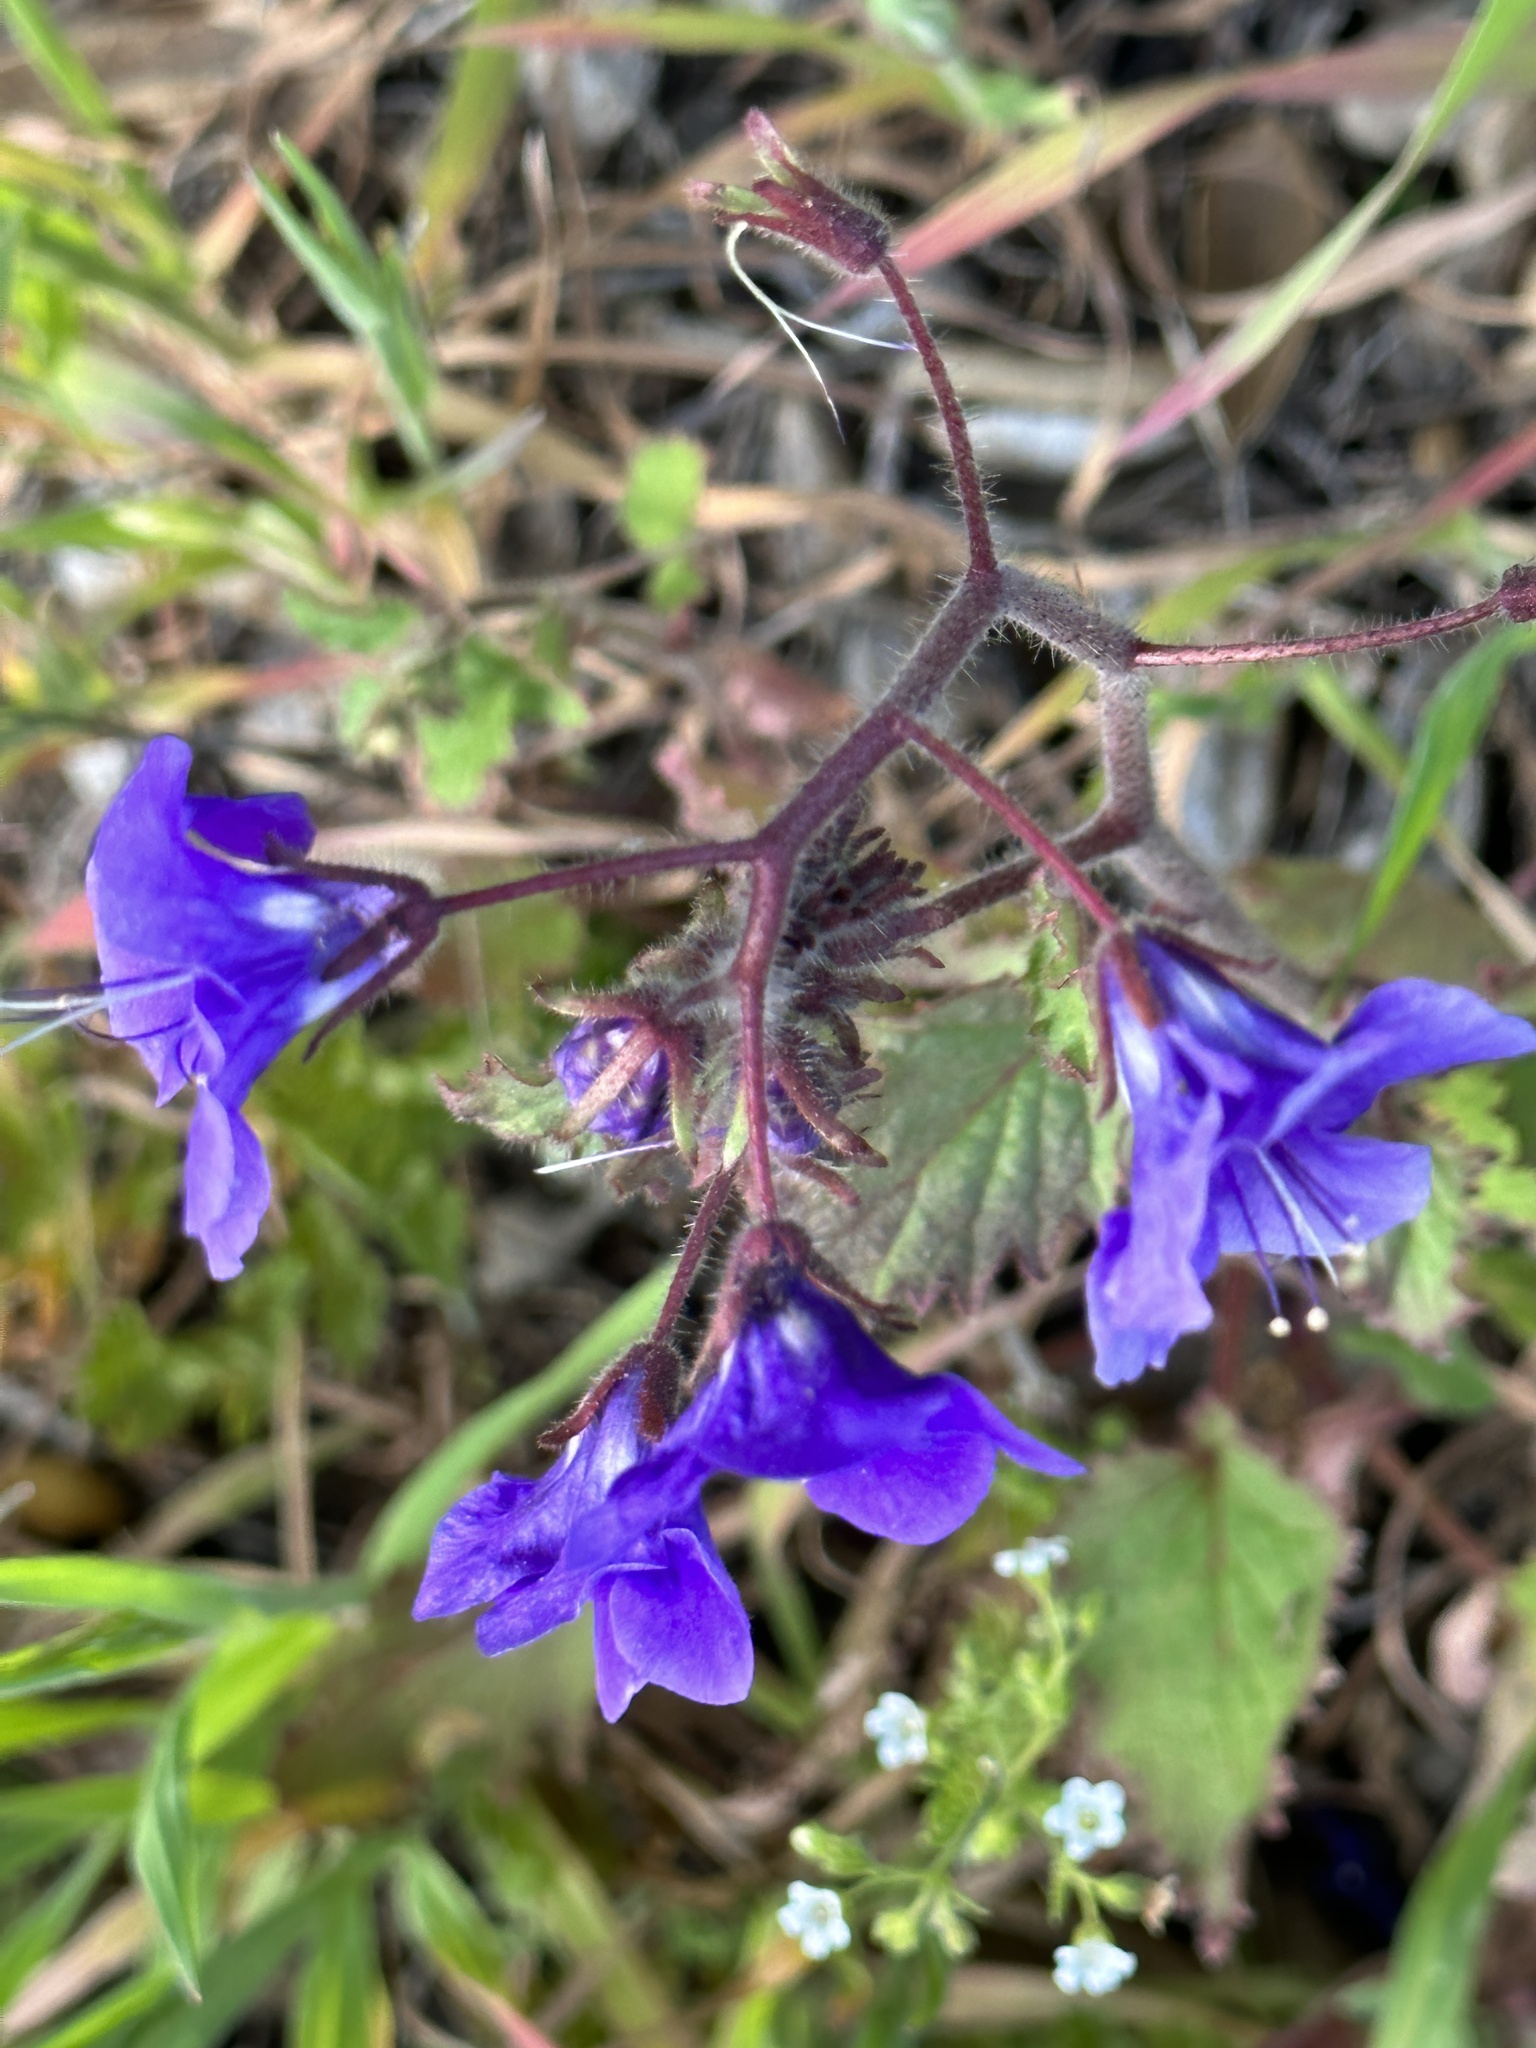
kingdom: Plantae
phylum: Tracheophyta
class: Magnoliopsida
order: Boraginales
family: Hydrophyllaceae
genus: Phacelia
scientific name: Phacelia parryi
